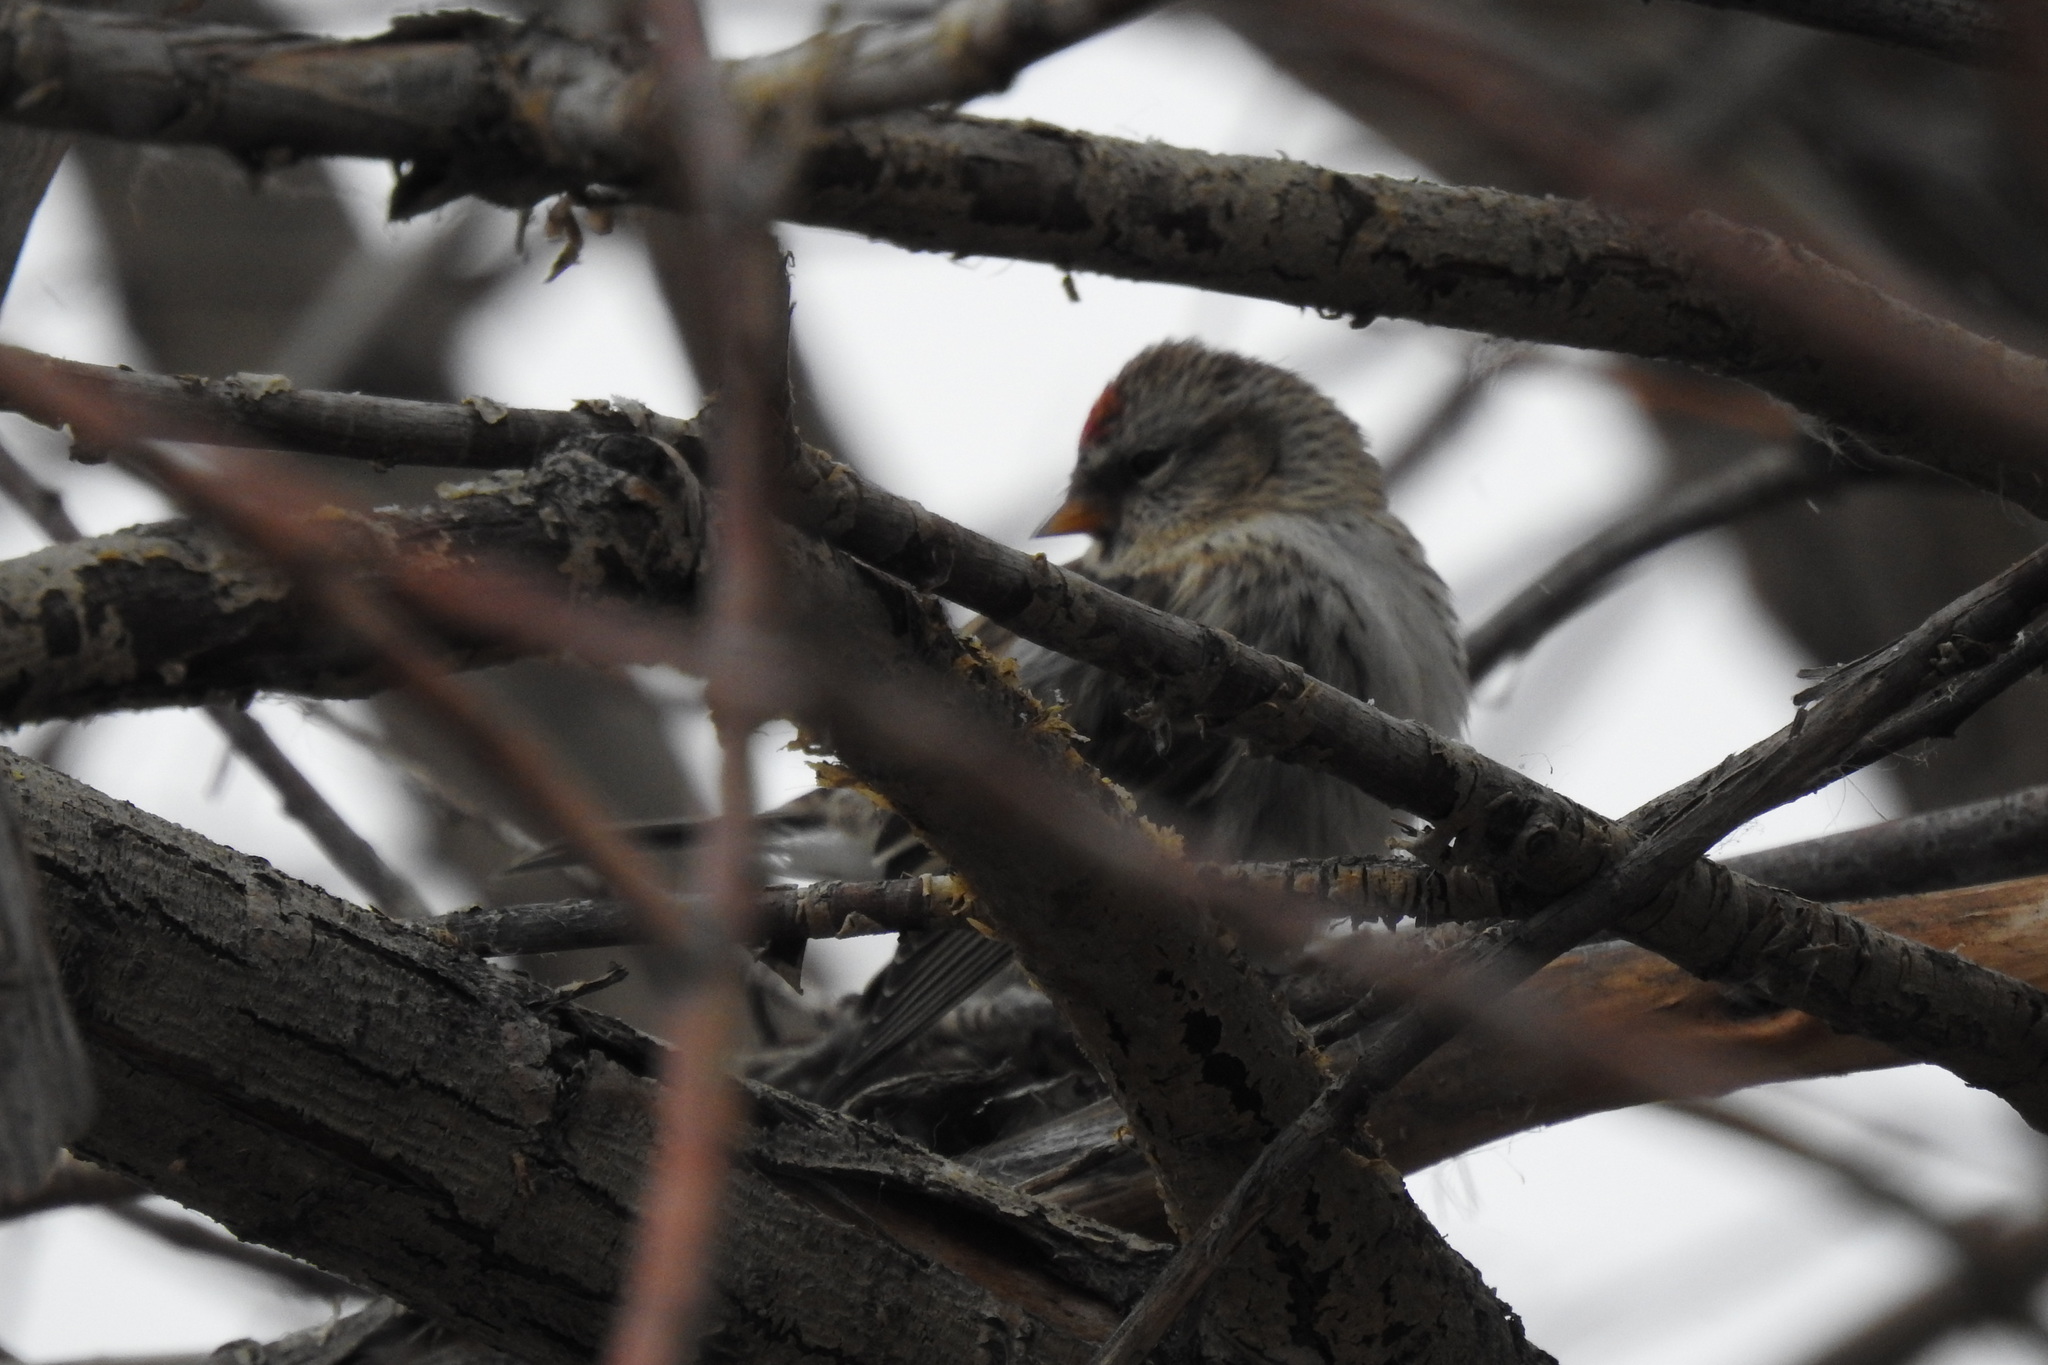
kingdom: Animalia
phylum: Chordata
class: Aves
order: Anseriformes
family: Anatidae
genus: Anas
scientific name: Anas crecca
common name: Eurasian teal
